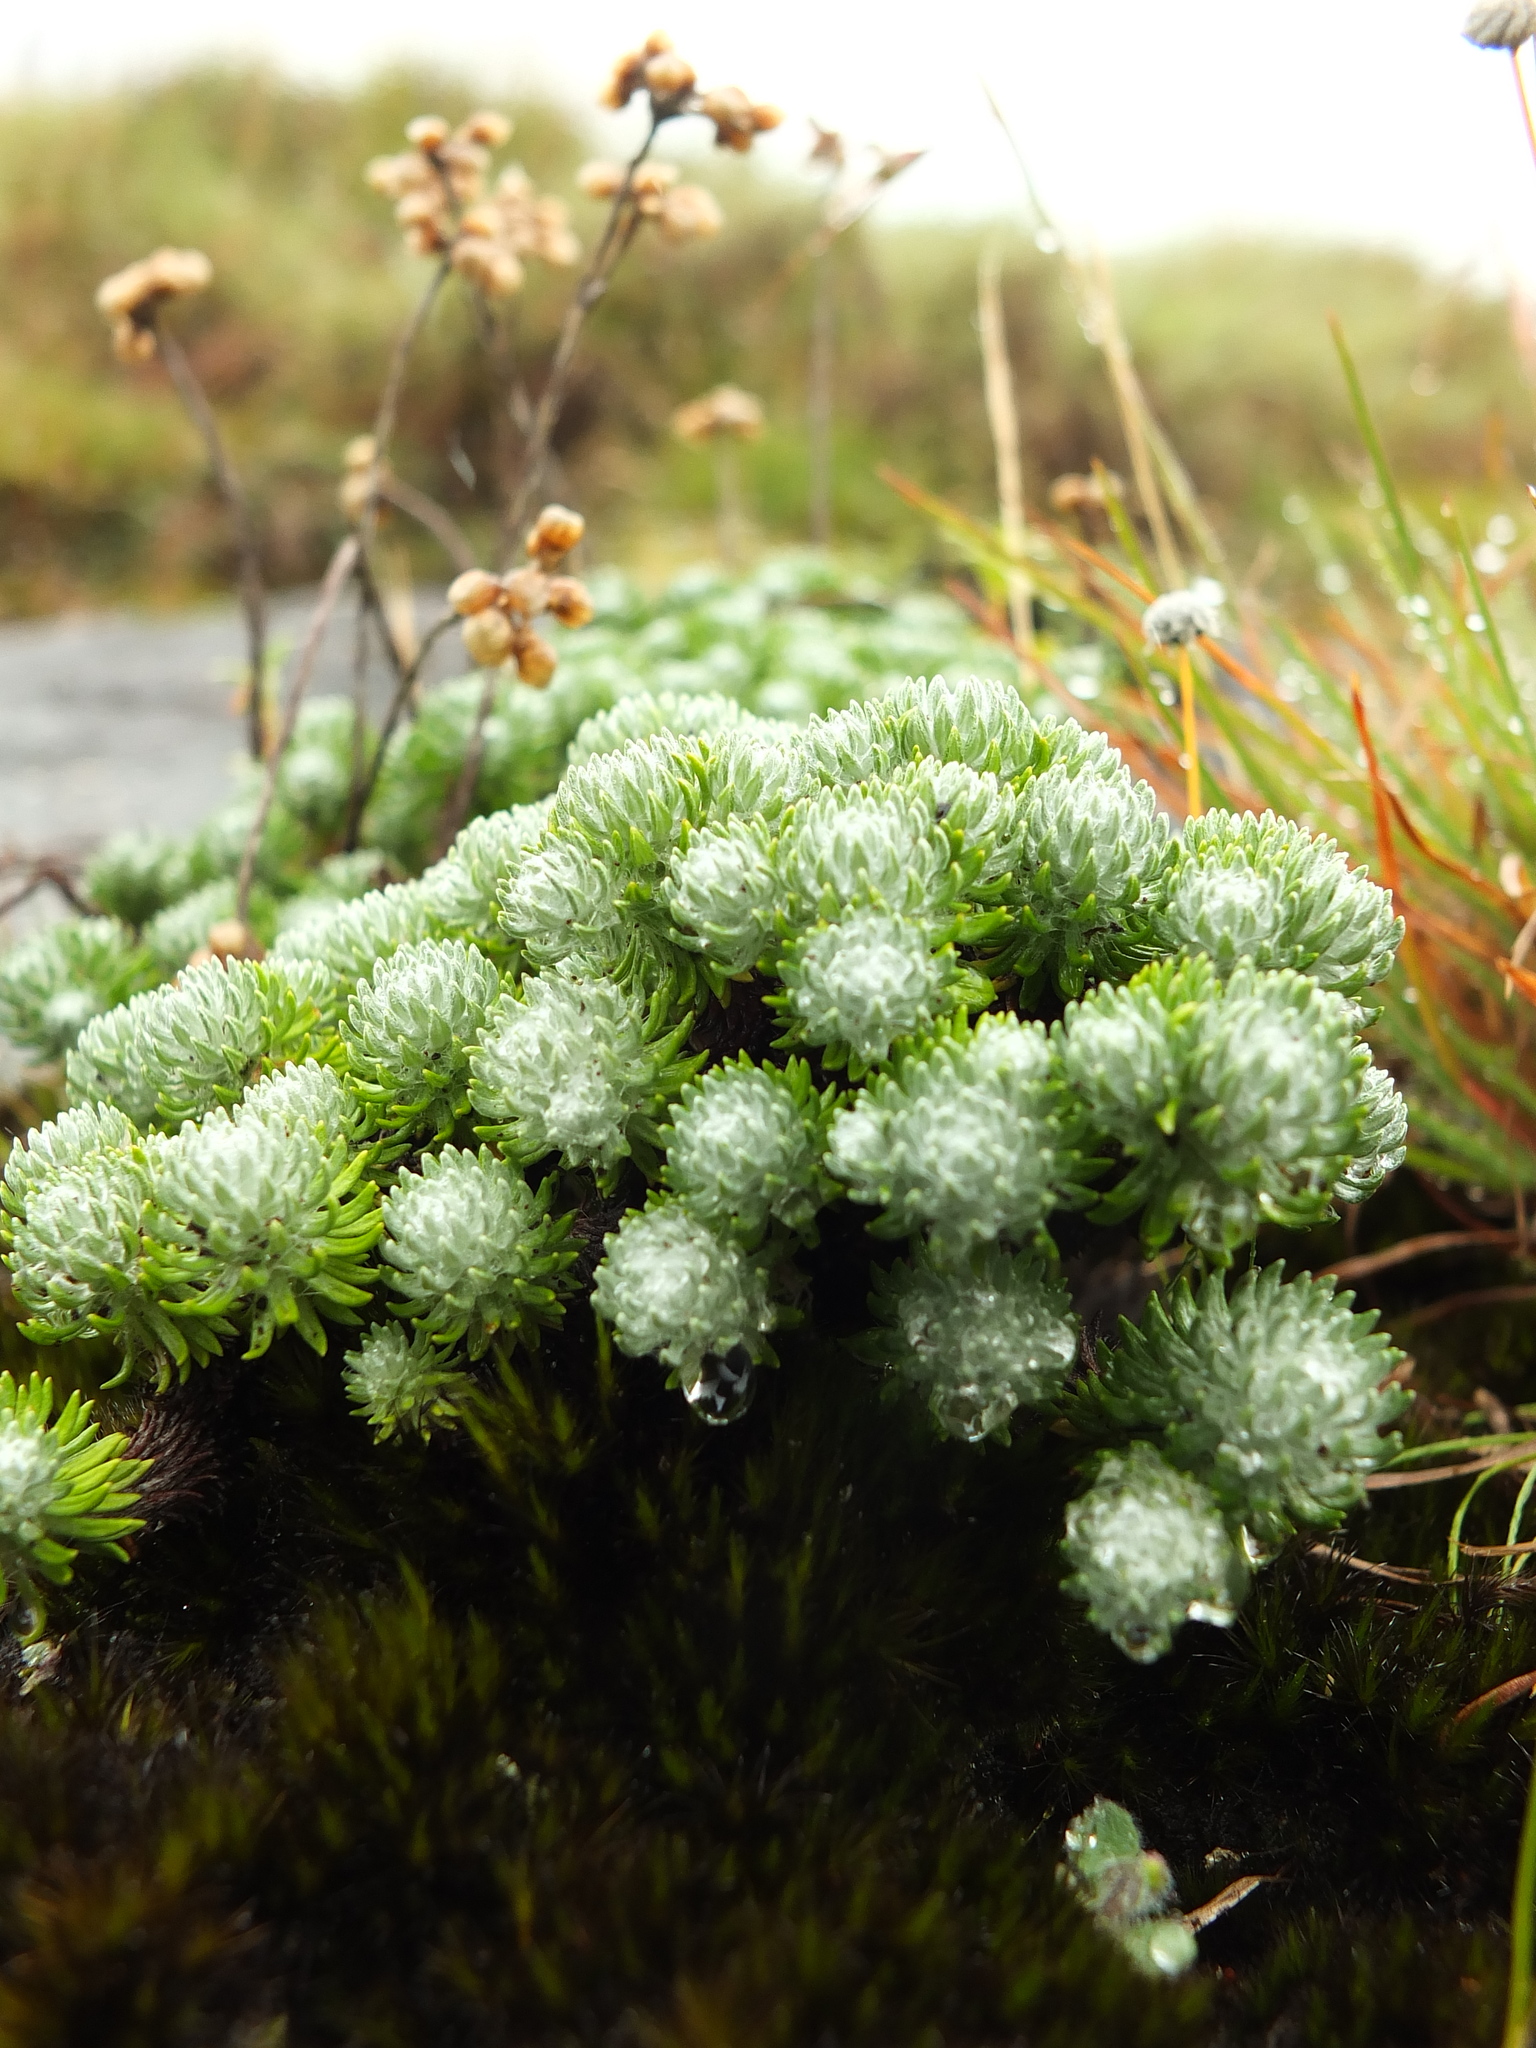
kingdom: Plantae
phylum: Tracheophyta
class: Magnoliopsida
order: Asterales
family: Asteraceae
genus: Anaphalis
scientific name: Anaphalis neelgerryana
